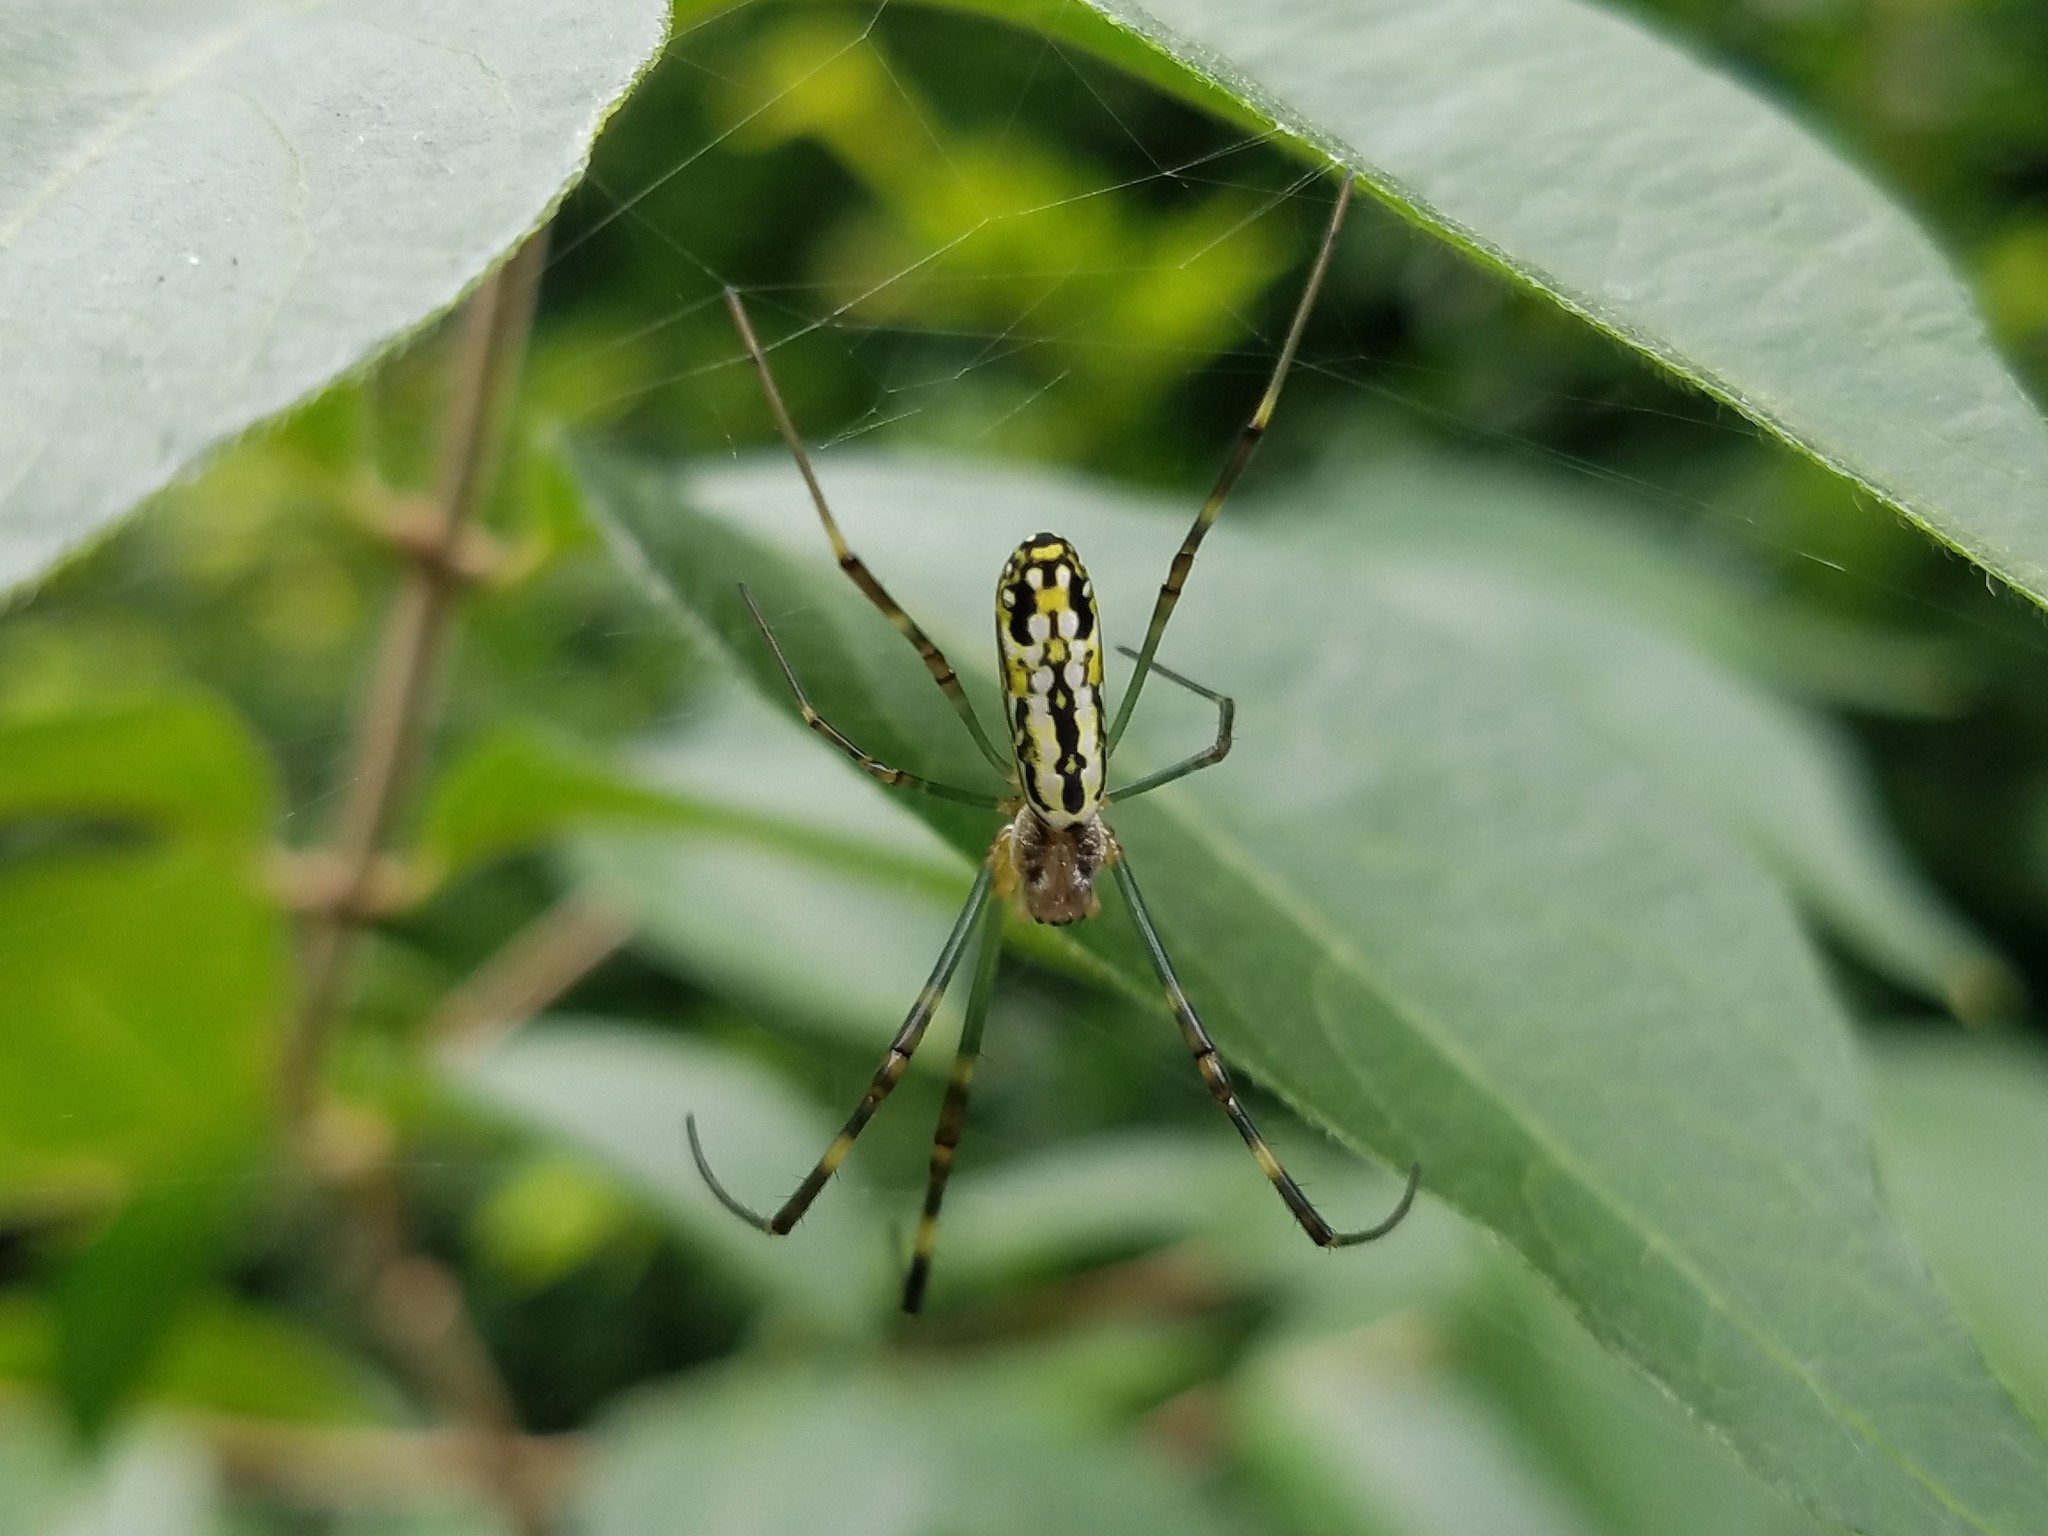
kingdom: Animalia
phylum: Arthropoda
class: Arachnida
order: Araneae
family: Araneidae
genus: Trichonephila
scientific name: Trichonephila clavata
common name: Jorō spider
